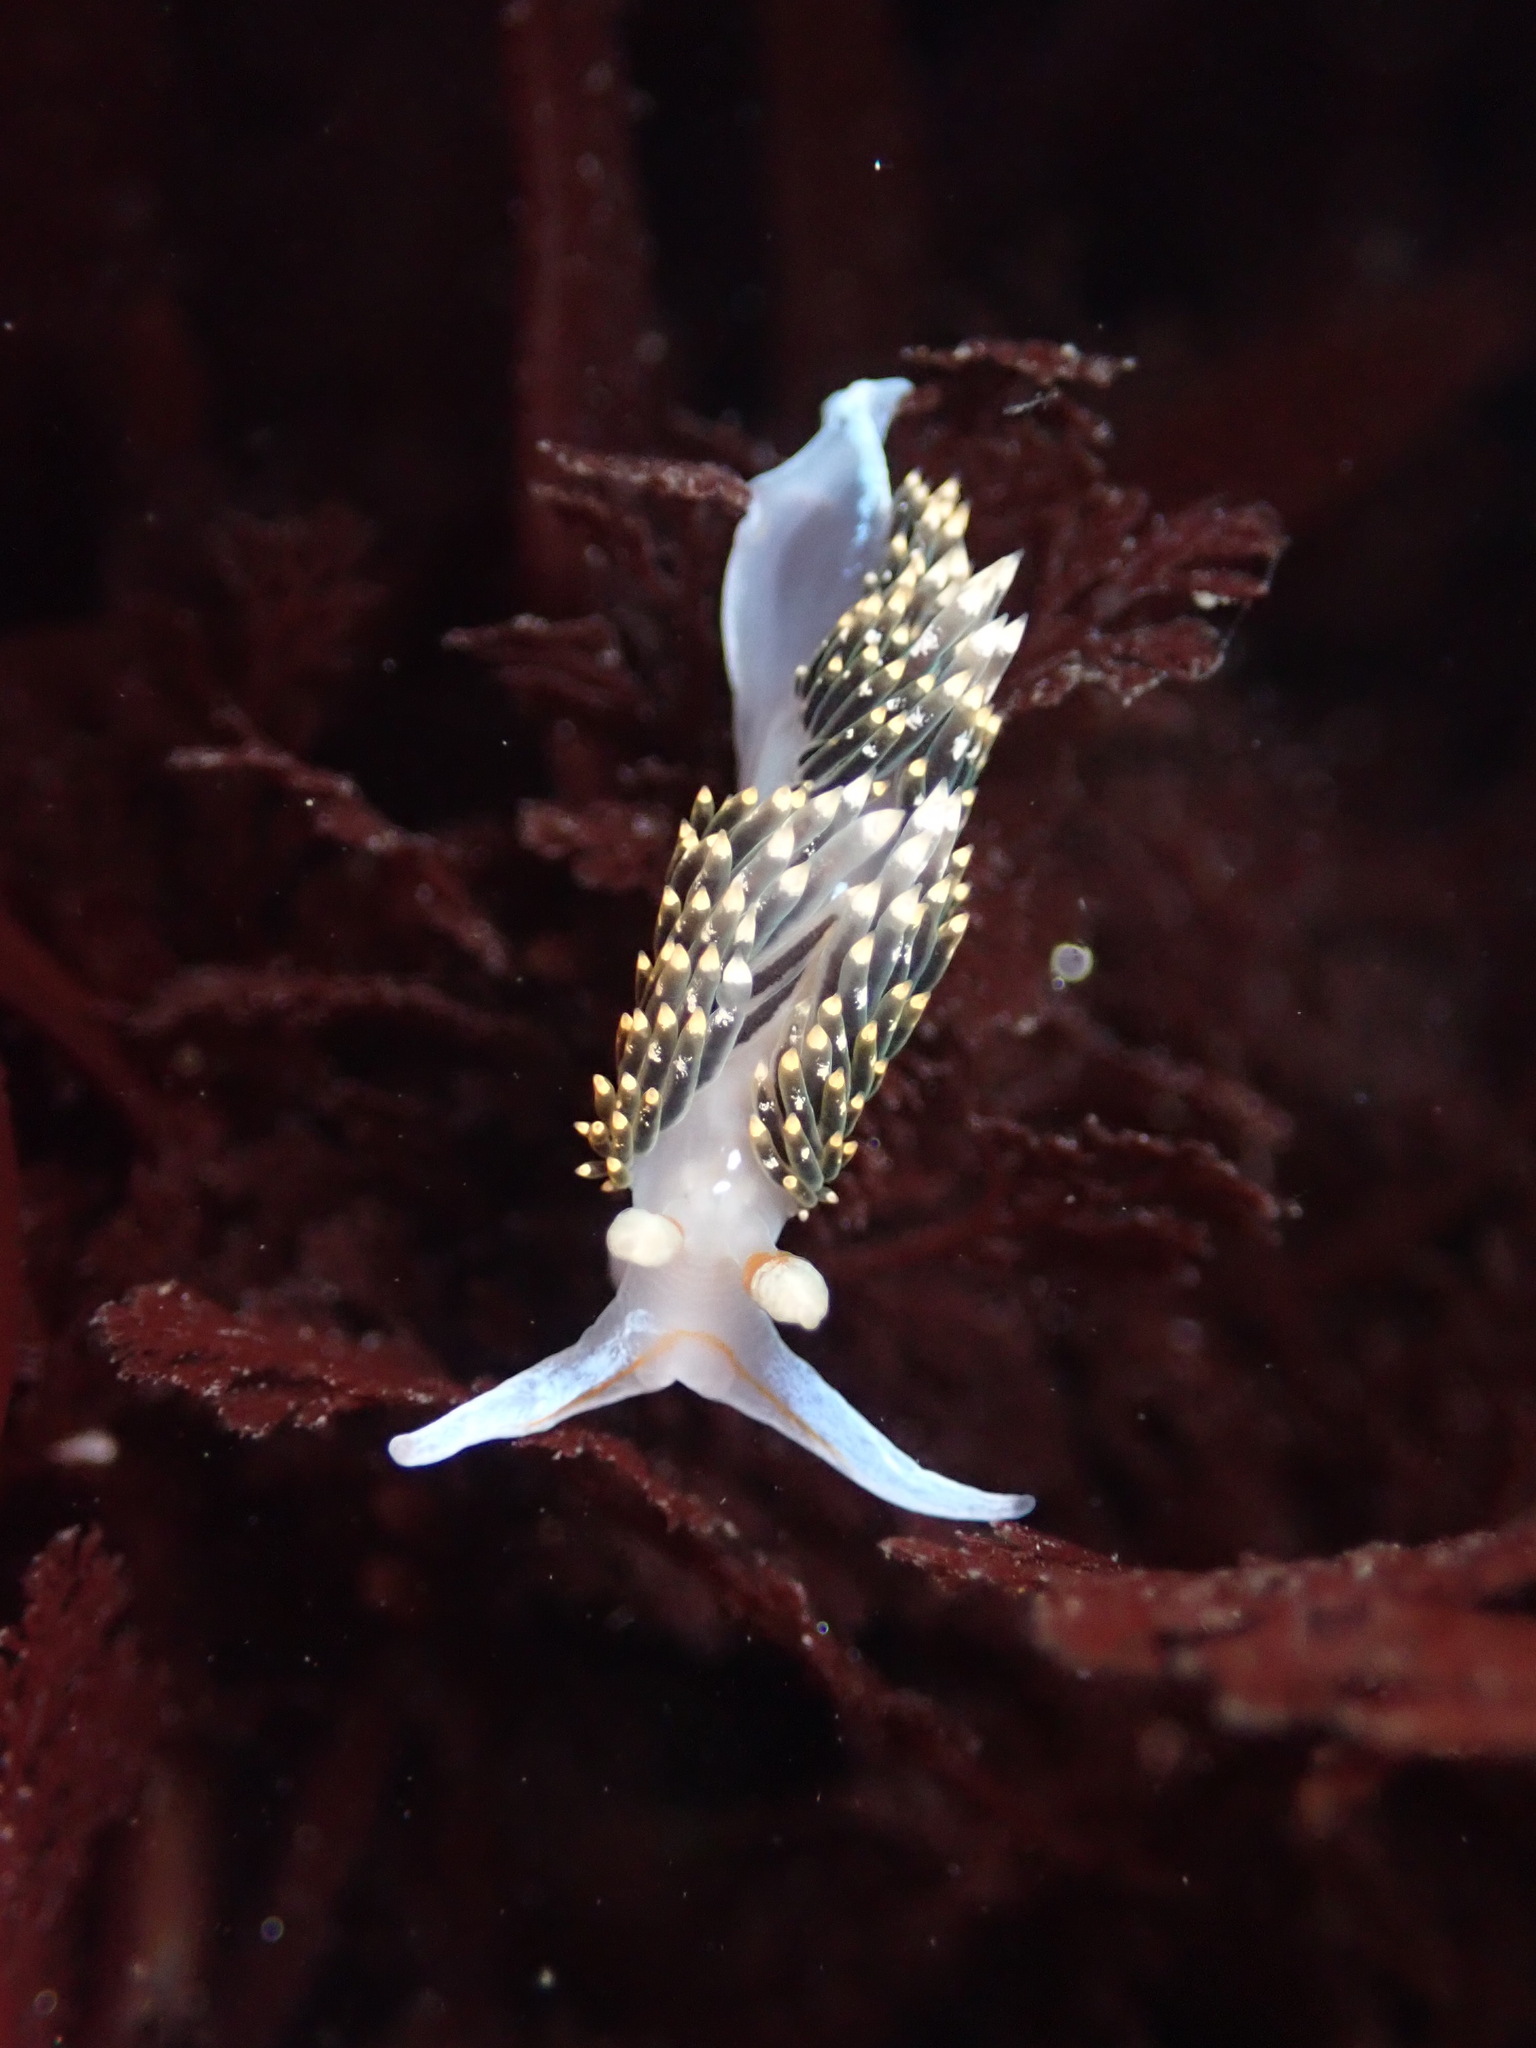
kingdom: Animalia
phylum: Mollusca
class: Gastropoda
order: Nudibranchia
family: Facelinidae
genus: Phidiana
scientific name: Phidiana hiltoni
